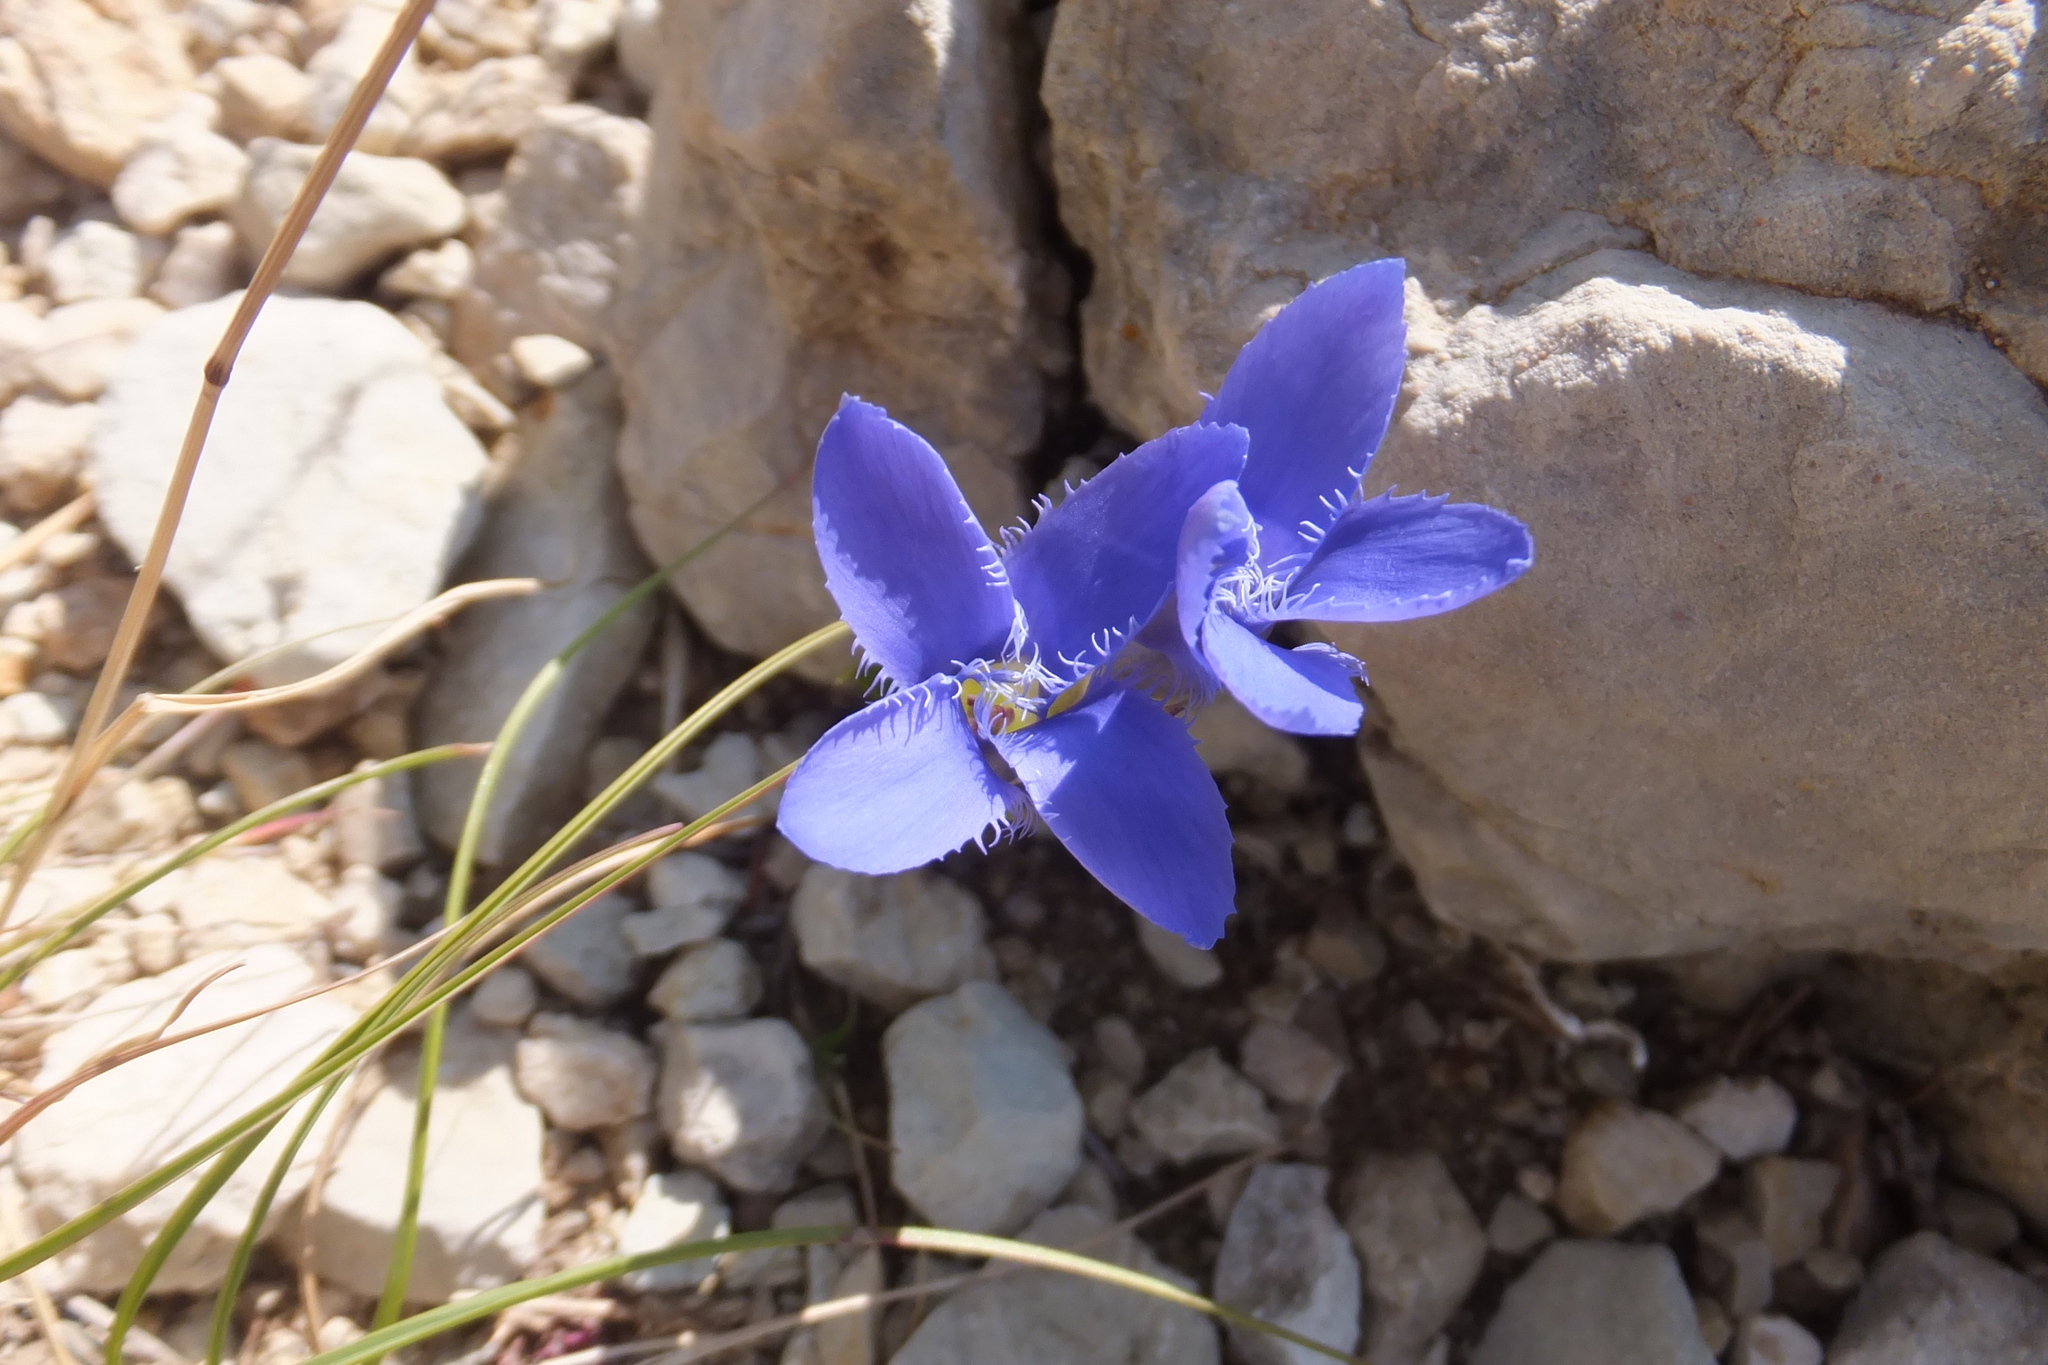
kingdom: Plantae
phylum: Tracheophyta
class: Magnoliopsida
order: Gentianales
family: Gentianaceae
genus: Gentianopsis
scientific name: Gentianopsis ciliata
